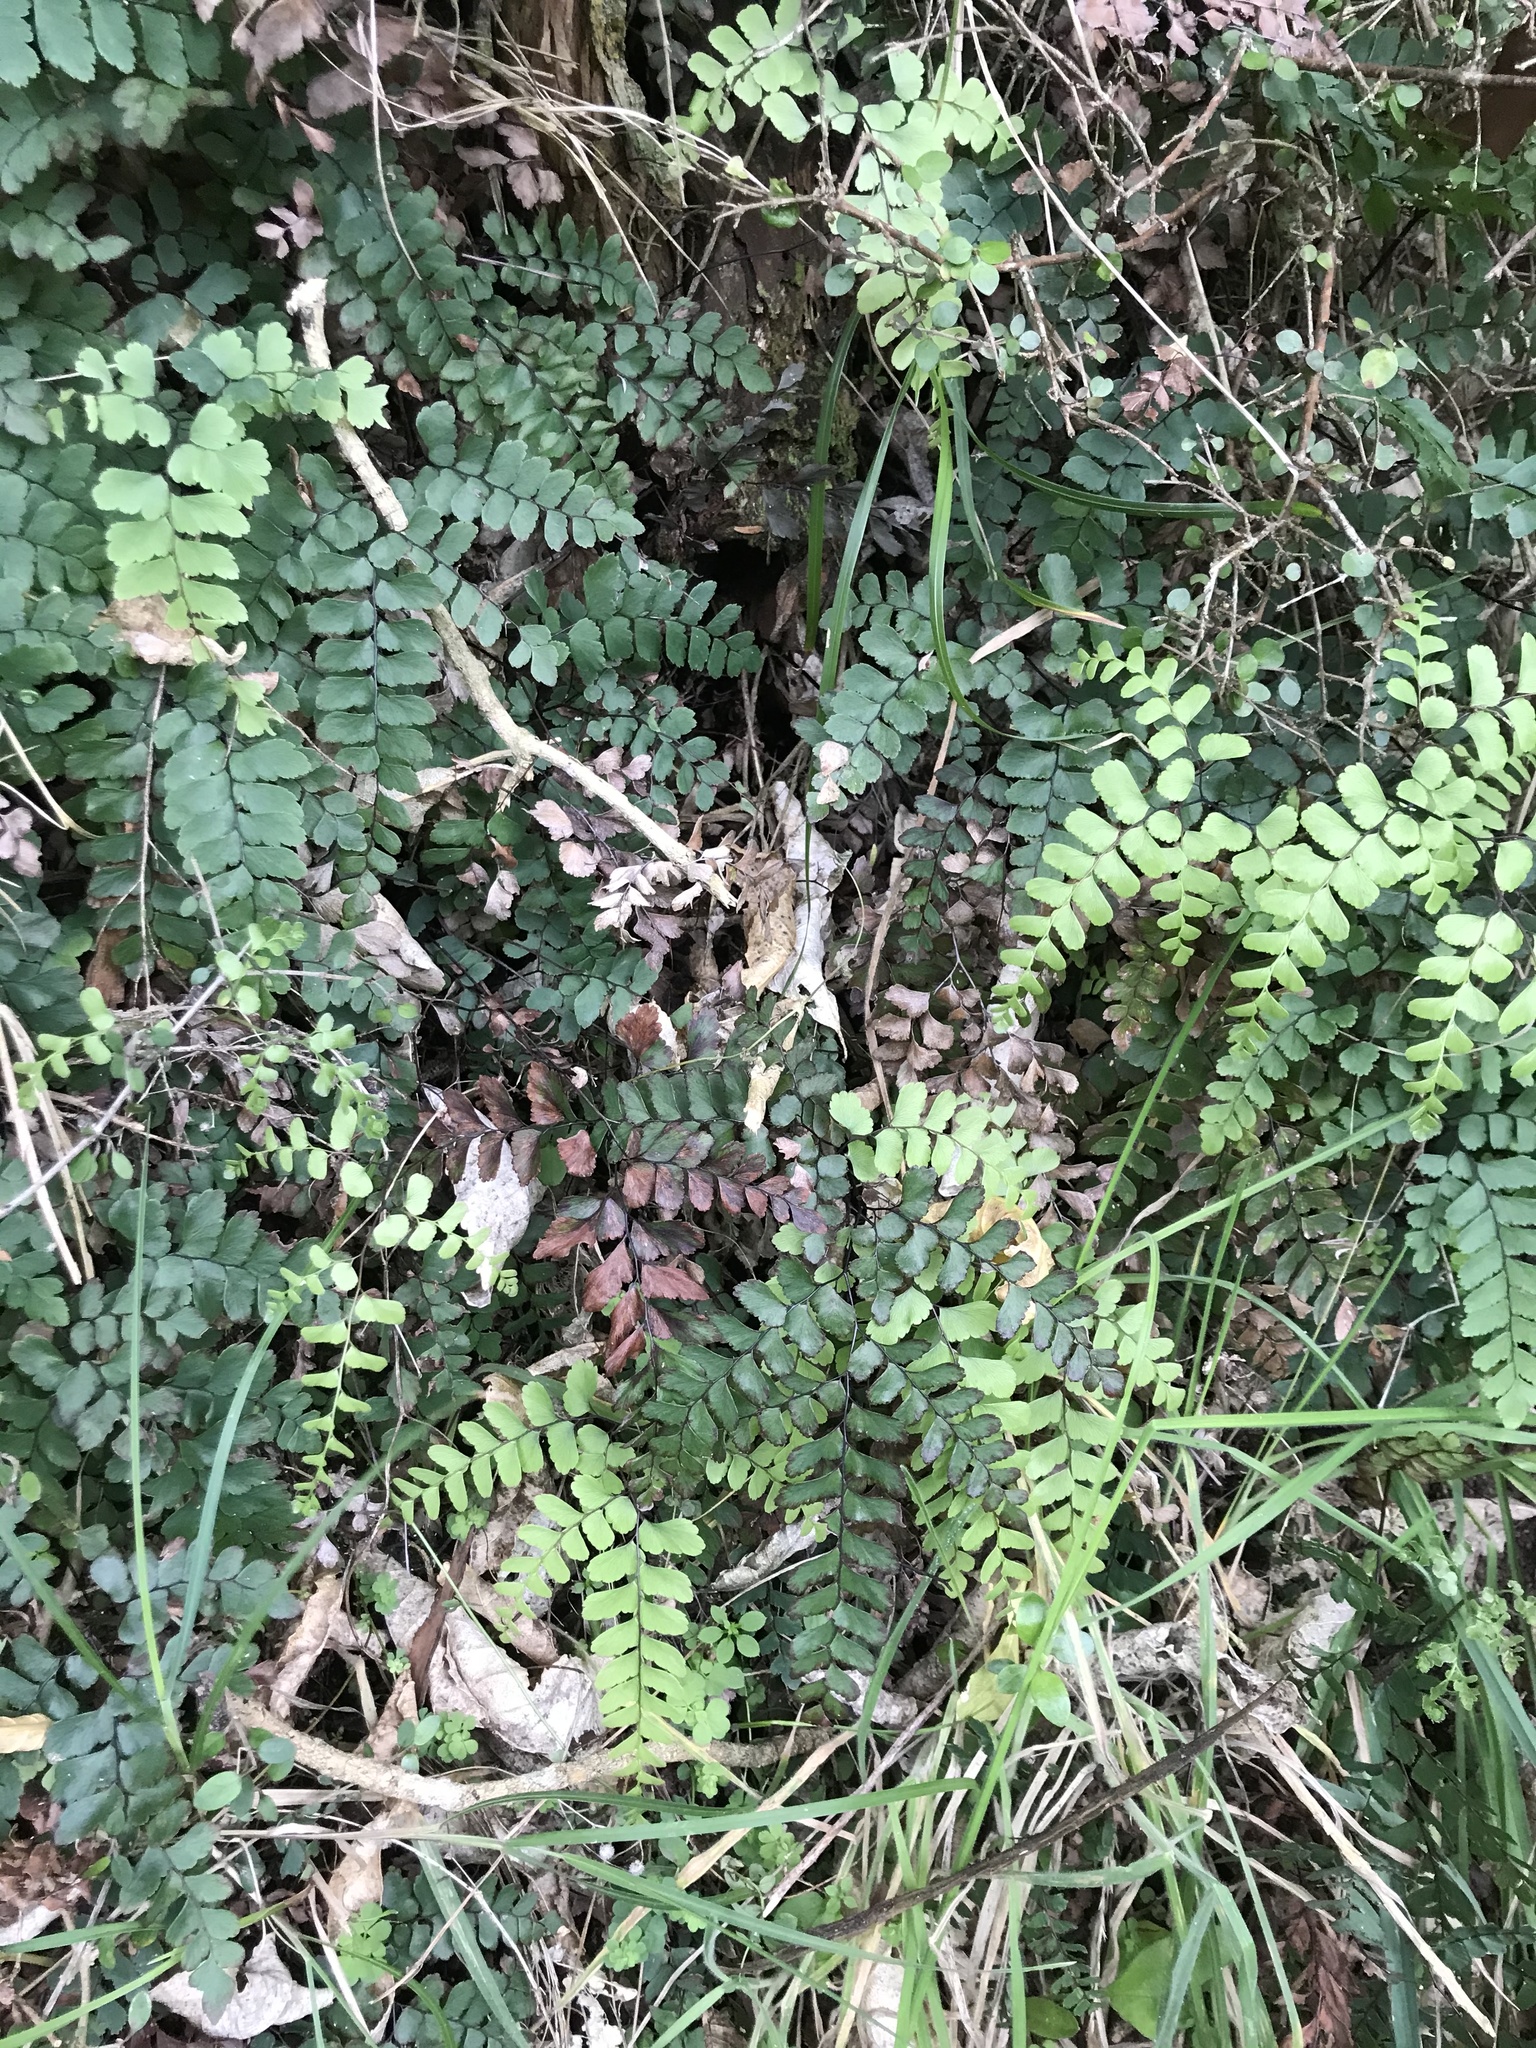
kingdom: Plantae
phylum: Tracheophyta
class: Polypodiopsida
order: Polypodiales
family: Pteridaceae
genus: Adiantum
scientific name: Adiantum cunninghamii
